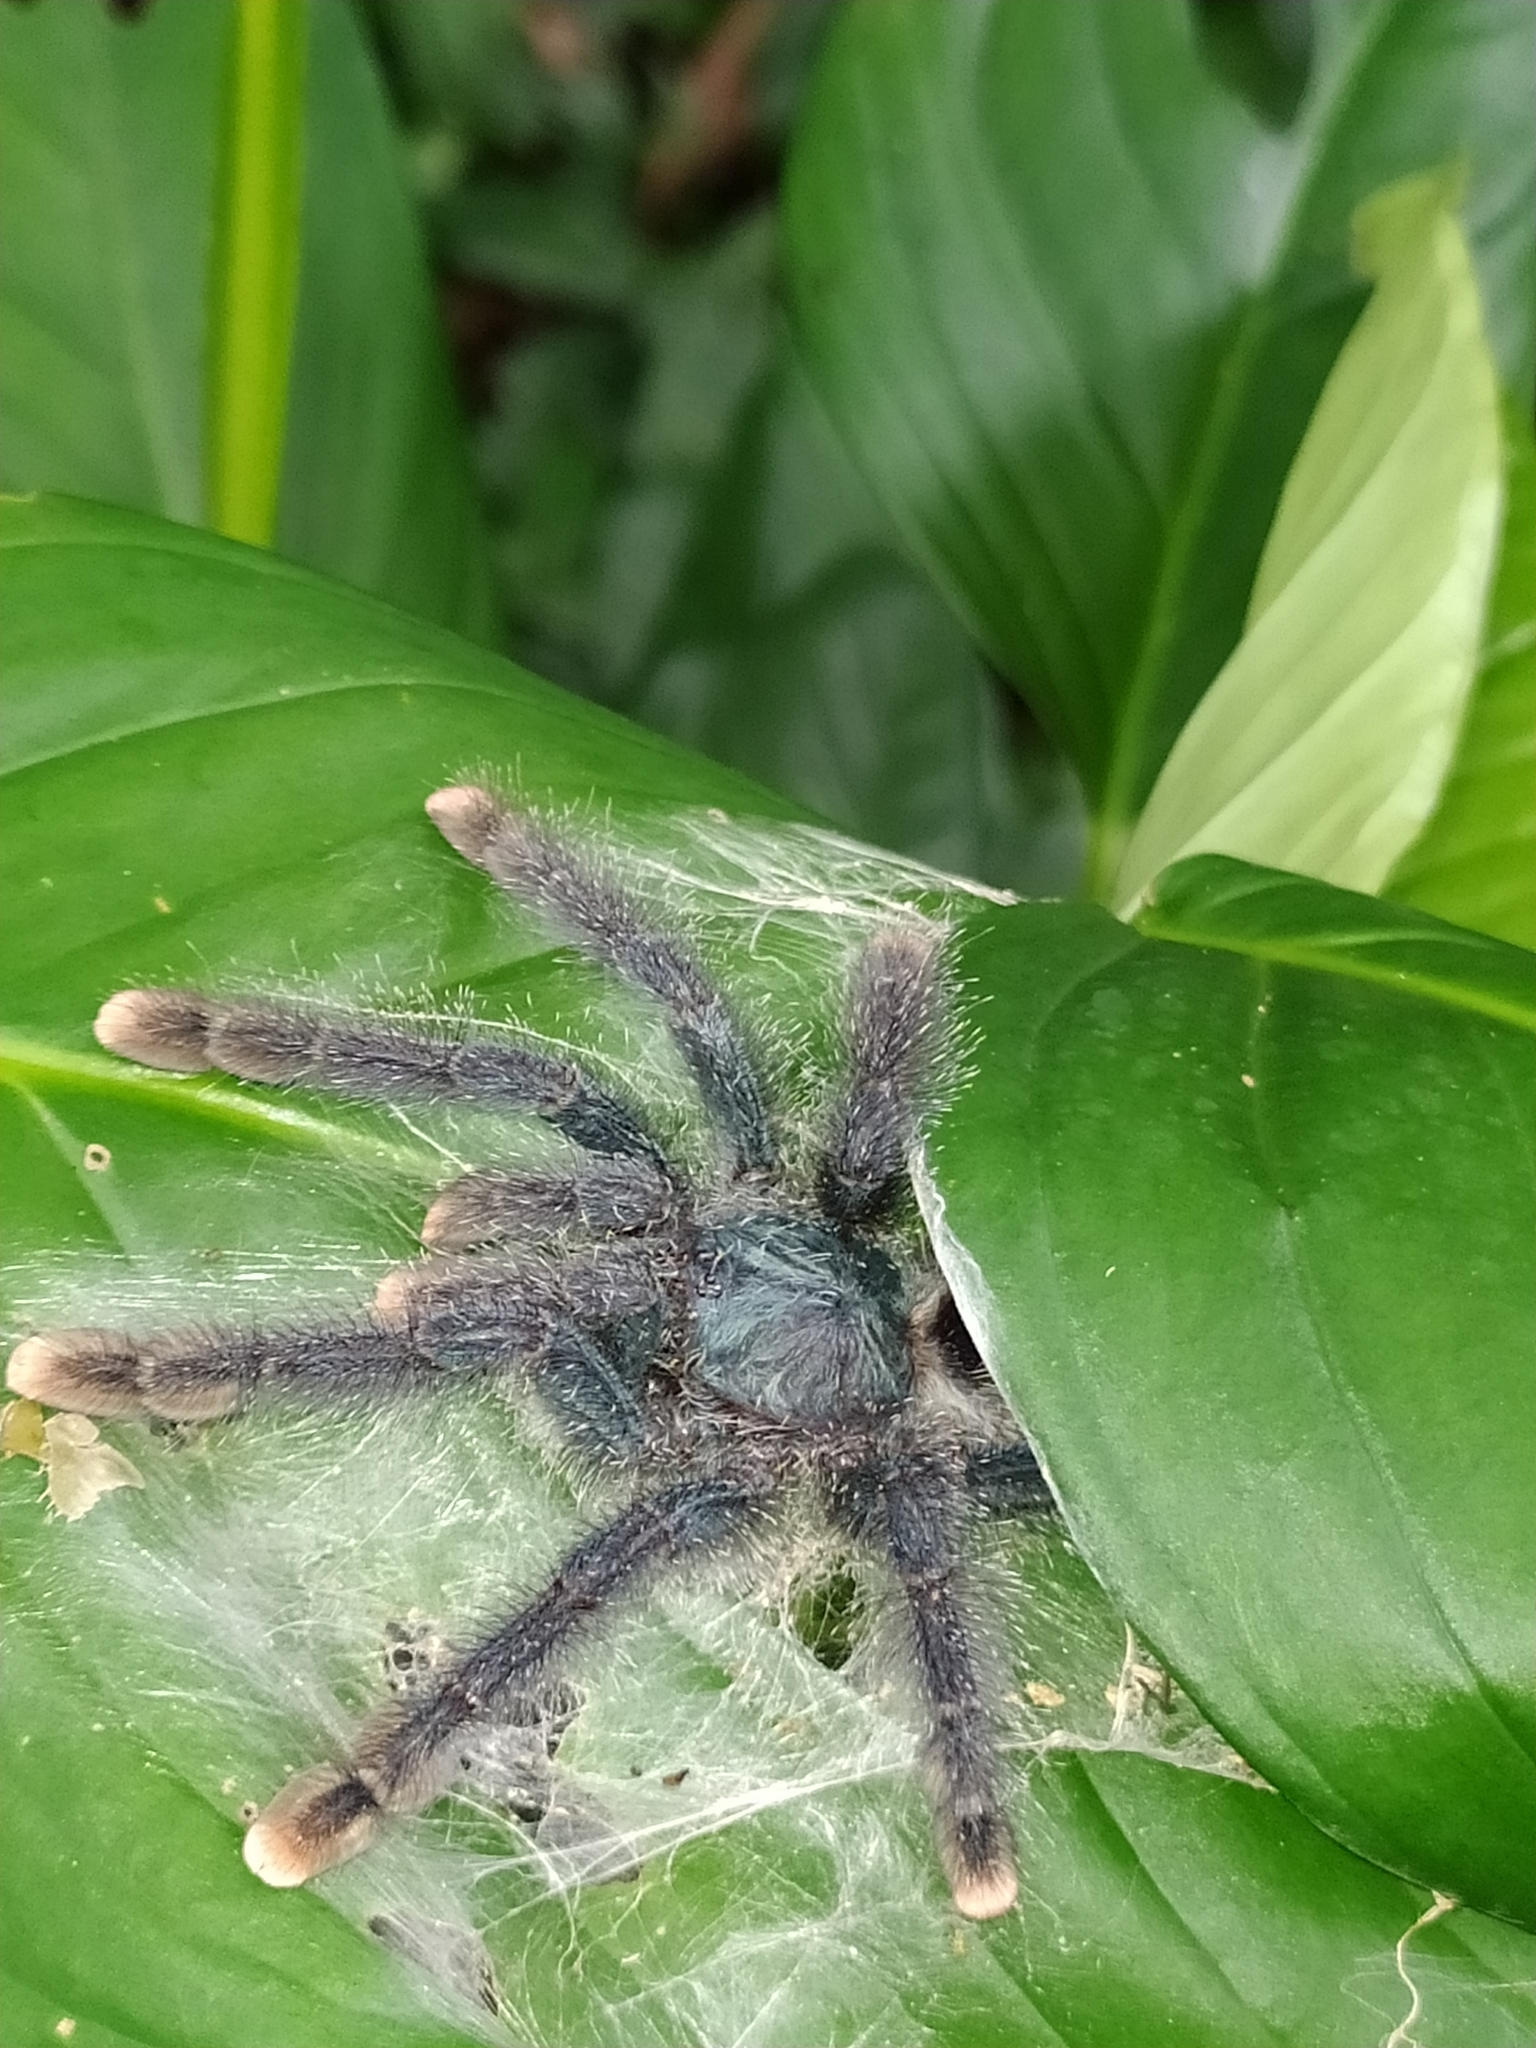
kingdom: Animalia
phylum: Arthropoda
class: Arachnida
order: Araneae
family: Theraphosidae
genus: Avicularia
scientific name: Avicularia avicularia
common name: Tarantula spiders
